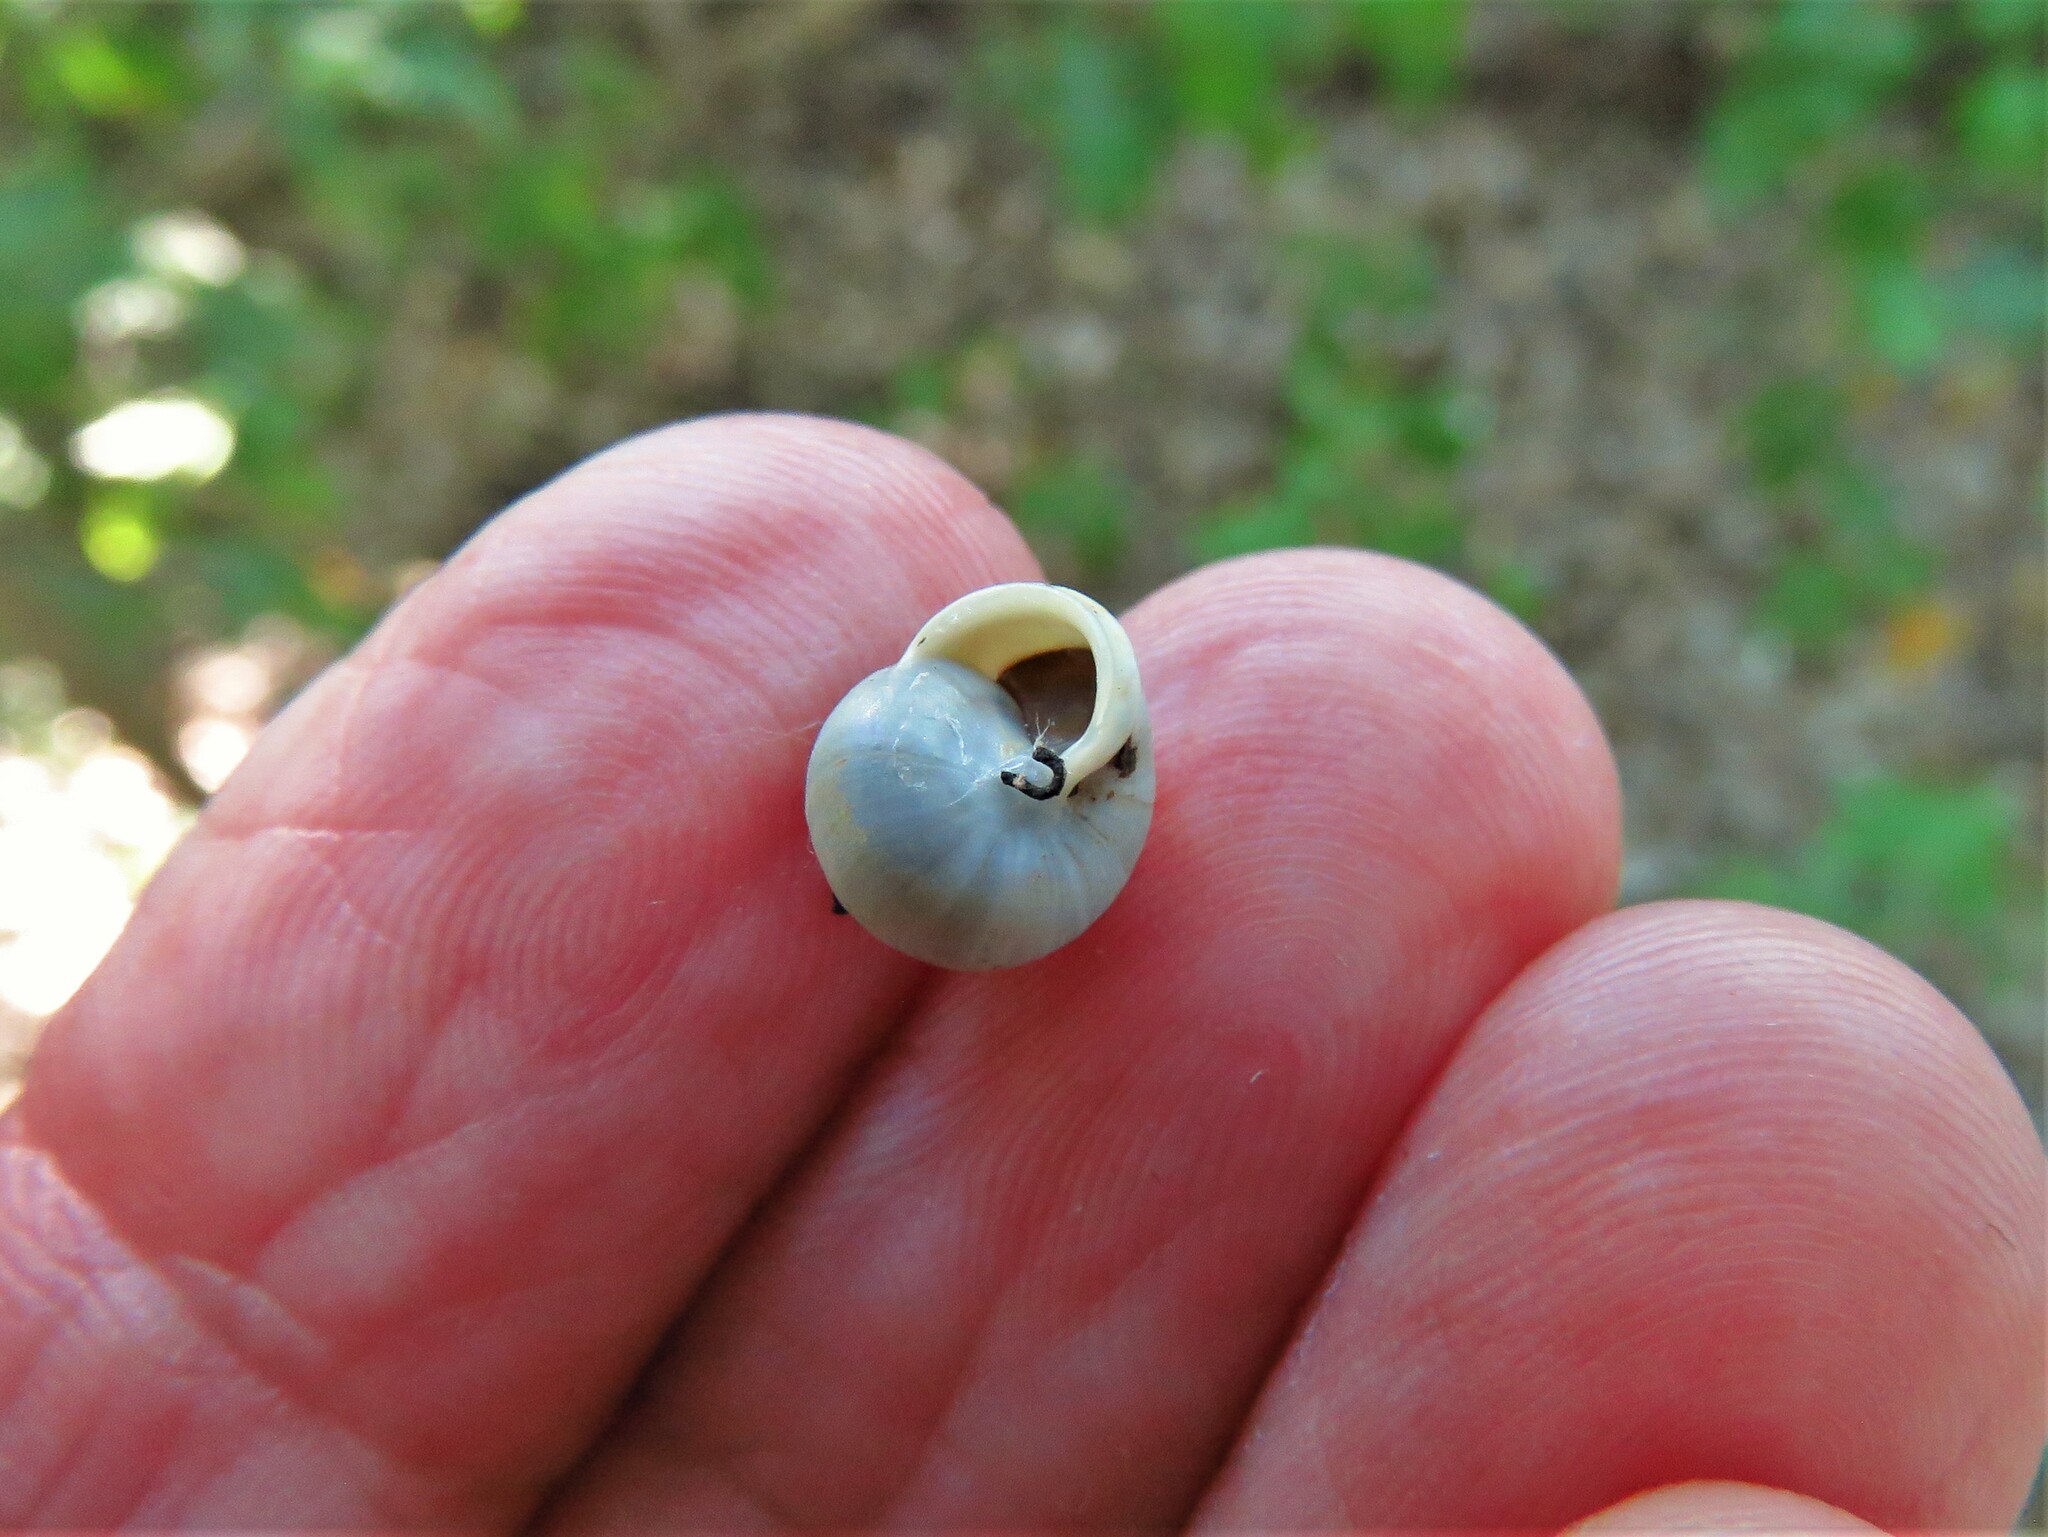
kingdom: Animalia
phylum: Mollusca
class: Gastropoda
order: Cycloneritida
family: Helicinidae
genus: Helicina
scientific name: Helicina orbiculata
